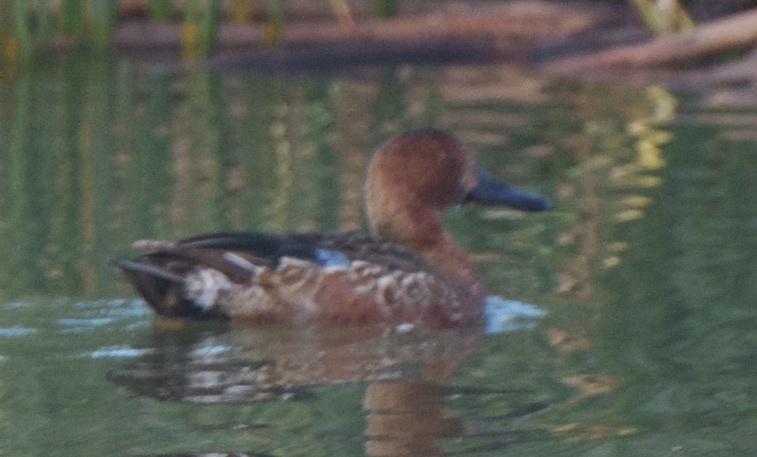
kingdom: Animalia
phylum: Chordata
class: Aves
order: Anseriformes
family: Anatidae
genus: Spatula
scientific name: Spatula cyanoptera
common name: Cinnamon teal
